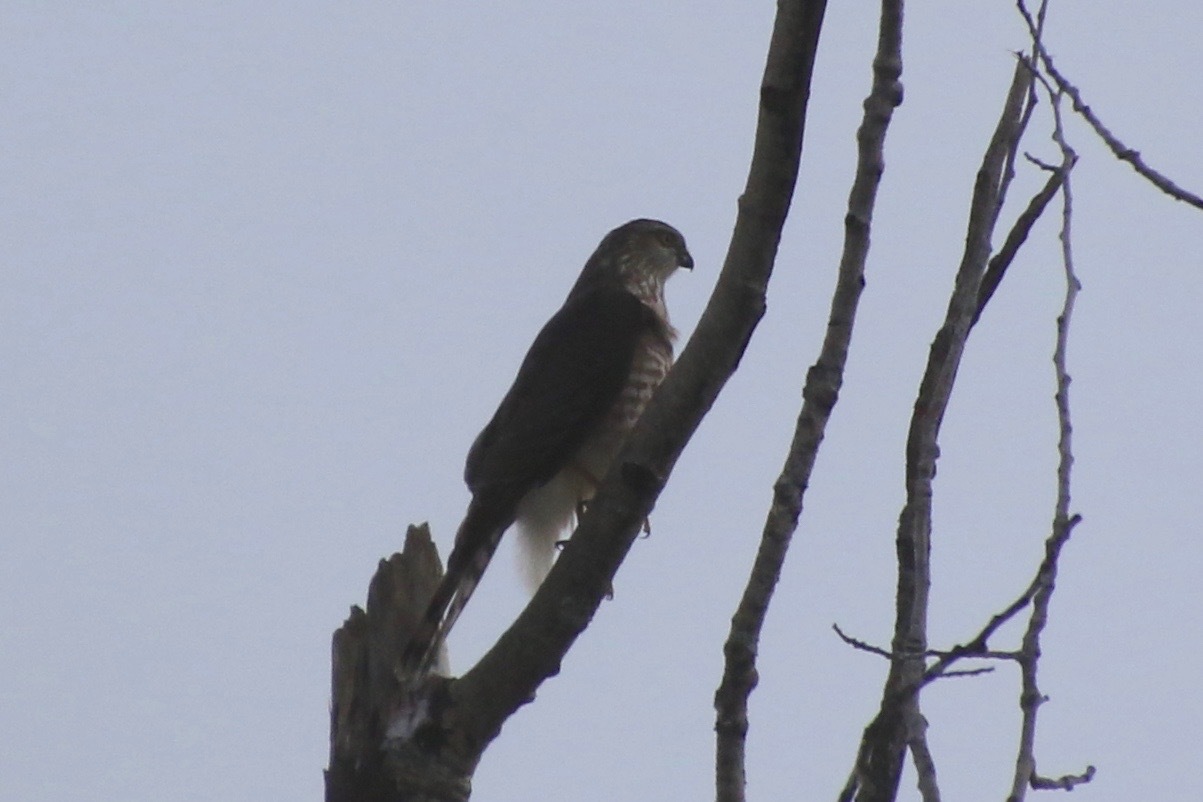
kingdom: Animalia
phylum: Chordata
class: Aves
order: Accipitriformes
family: Accipitridae
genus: Accipiter
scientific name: Accipiter striatus
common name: Sharp-shinned hawk
